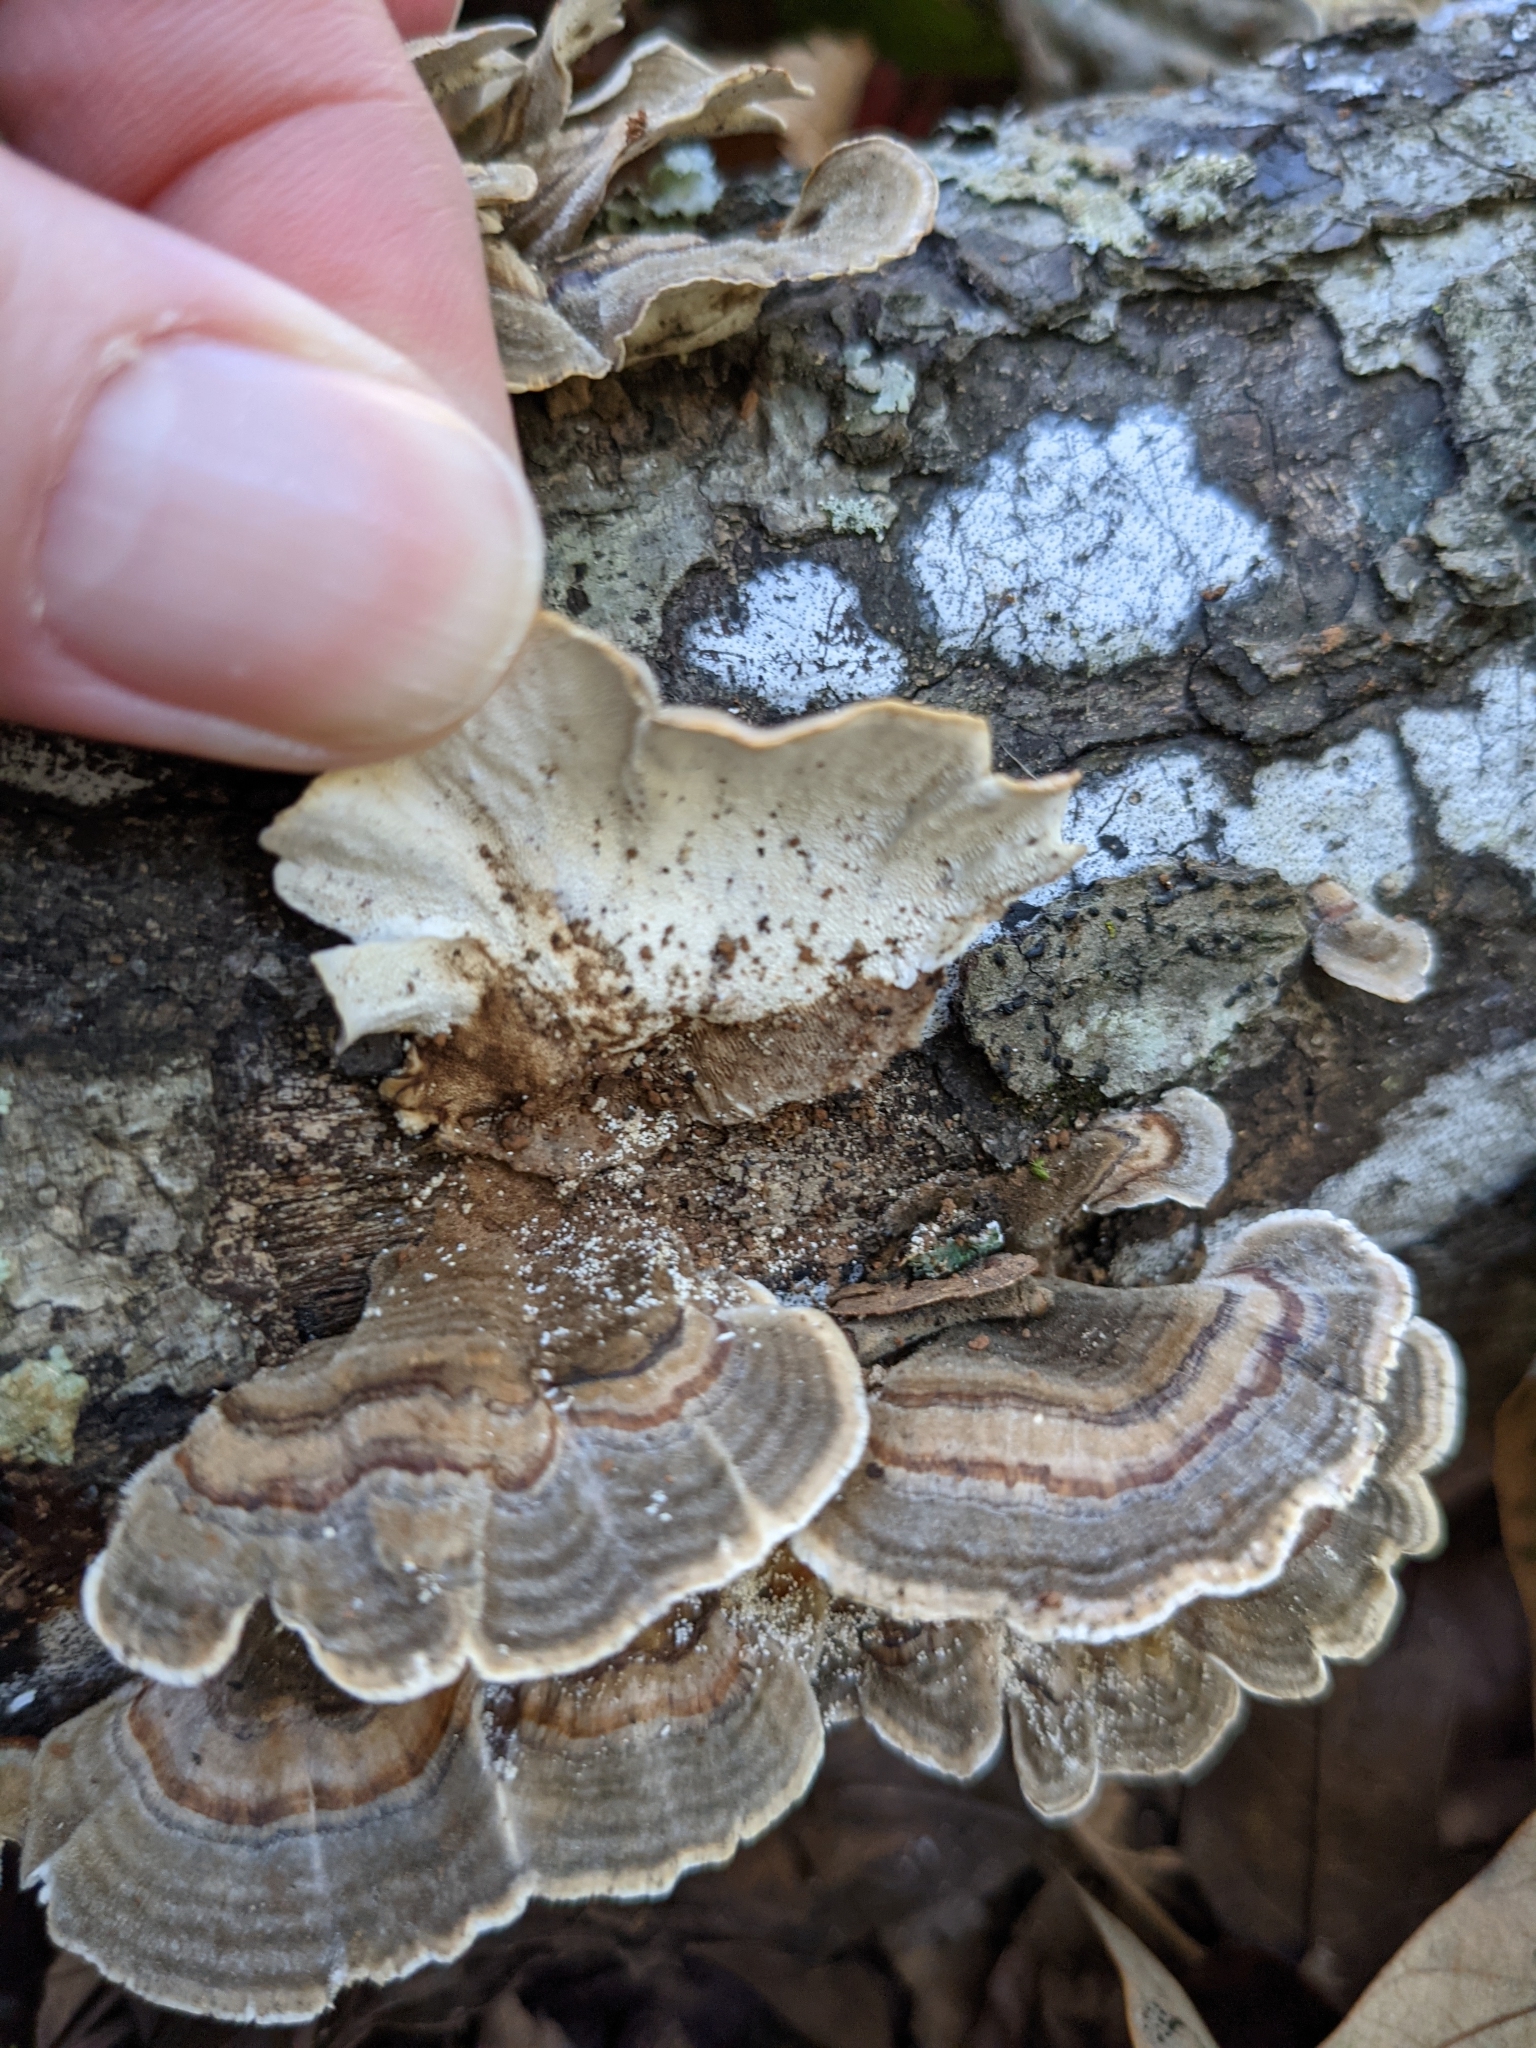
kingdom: Fungi
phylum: Basidiomycota
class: Agaricomycetes
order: Polyporales
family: Polyporaceae
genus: Trametes
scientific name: Trametes versicolor
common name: Turkeytail
